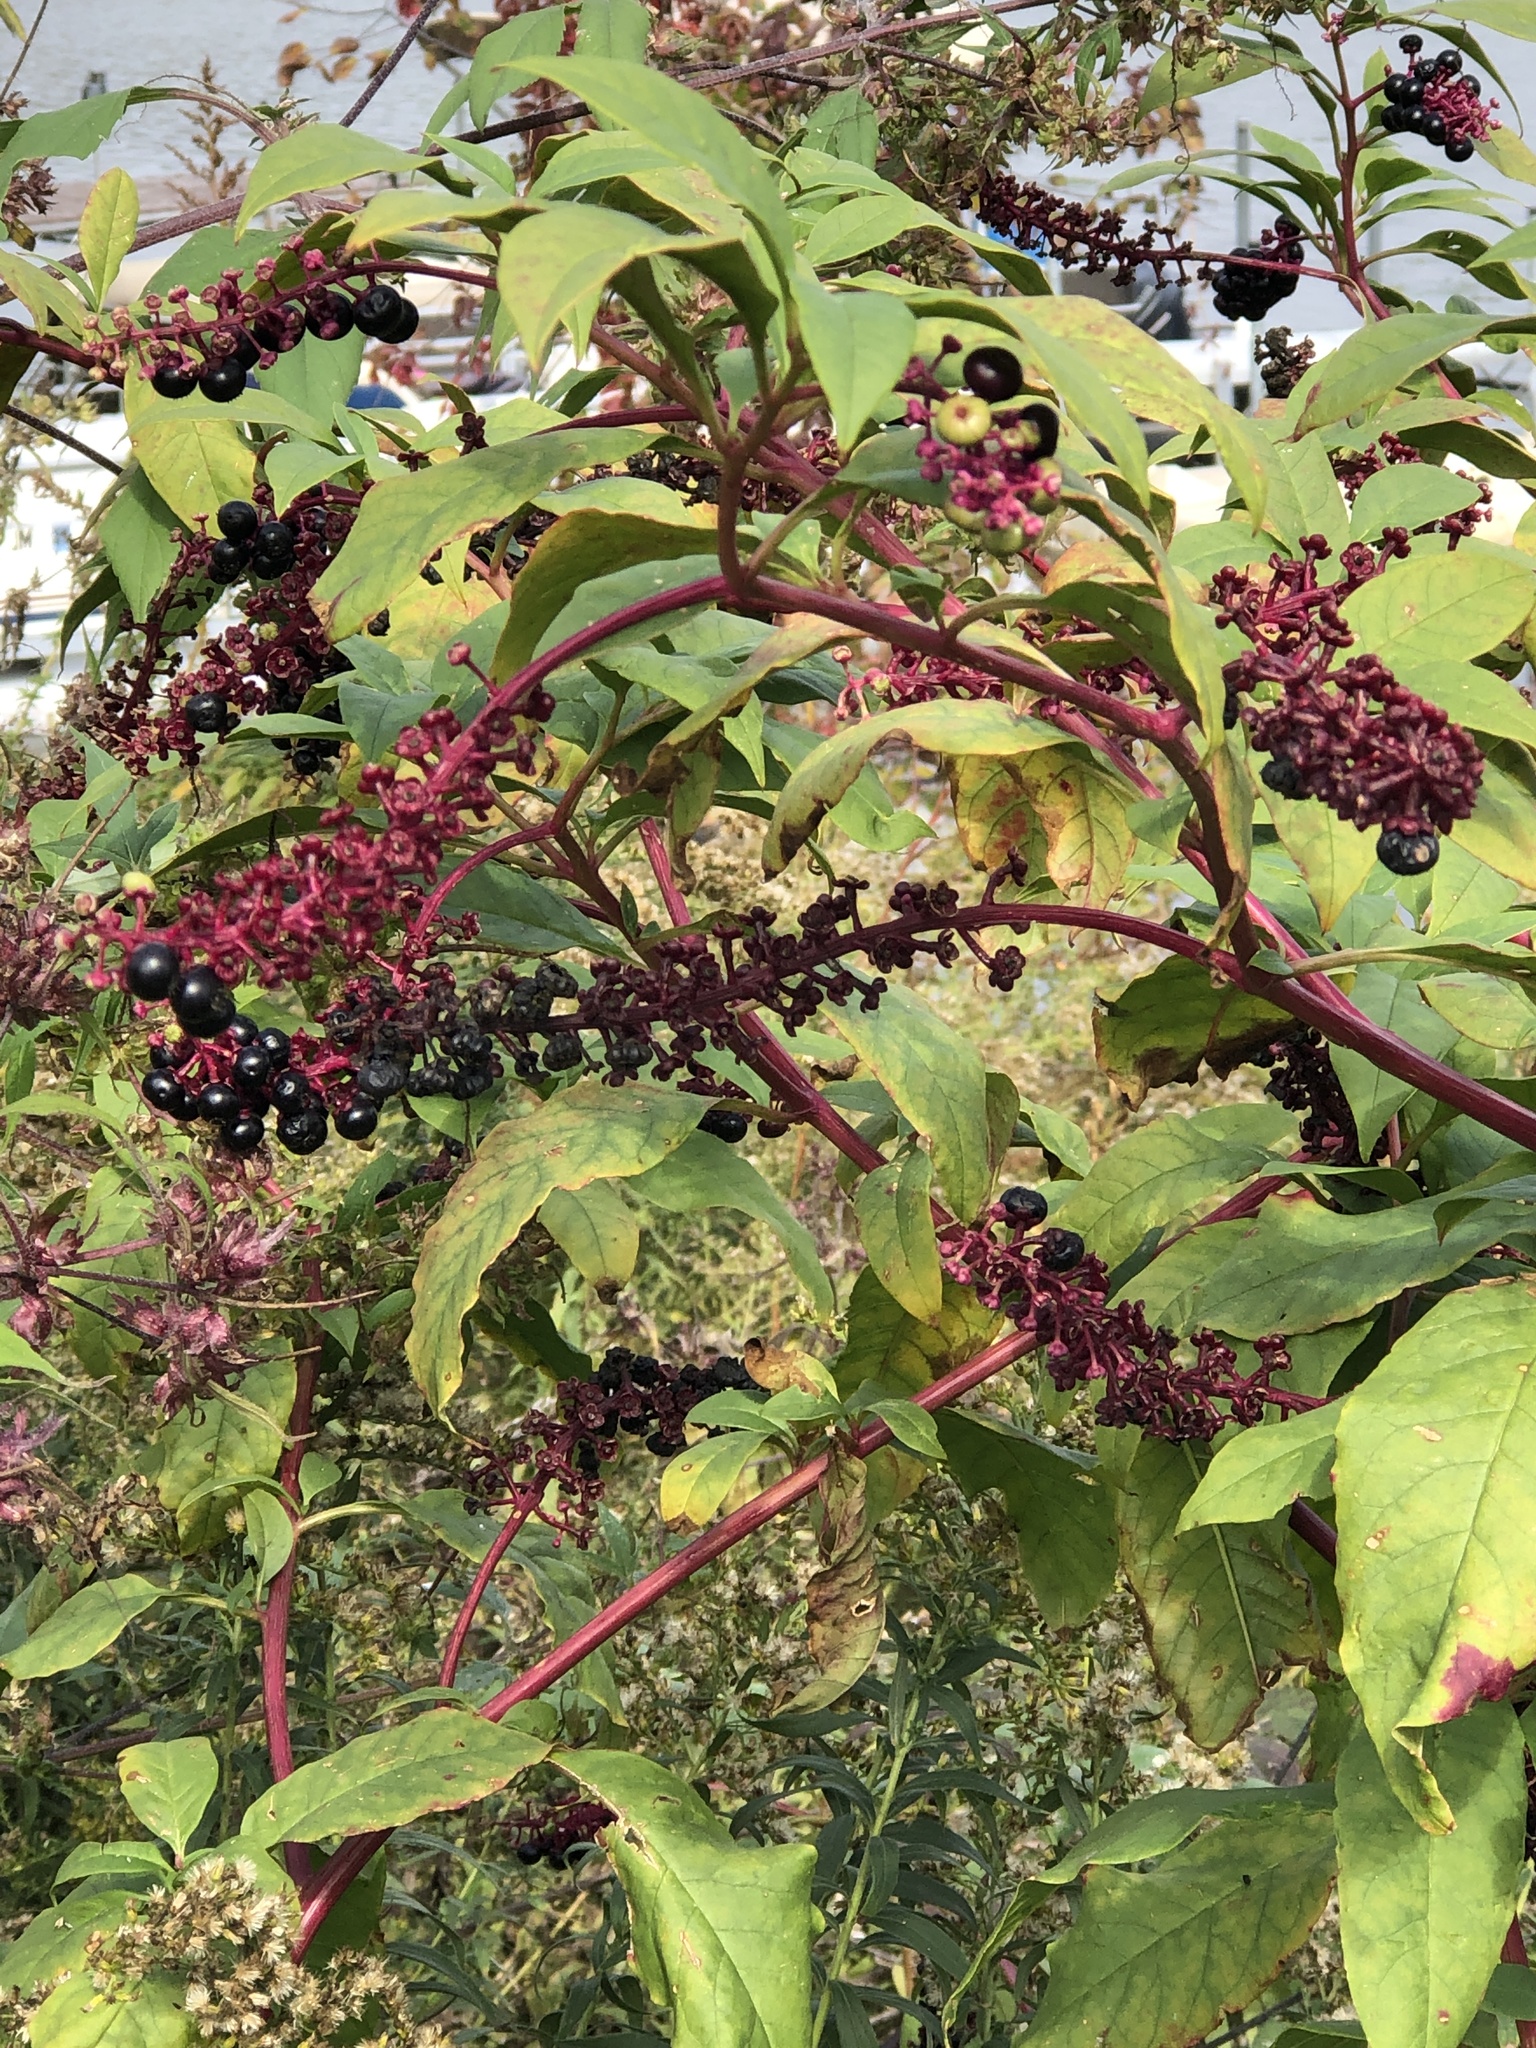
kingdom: Plantae
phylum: Tracheophyta
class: Magnoliopsida
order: Caryophyllales
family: Phytolaccaceae
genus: Phytolacca
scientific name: Phytolacca americana
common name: American pokeweed
